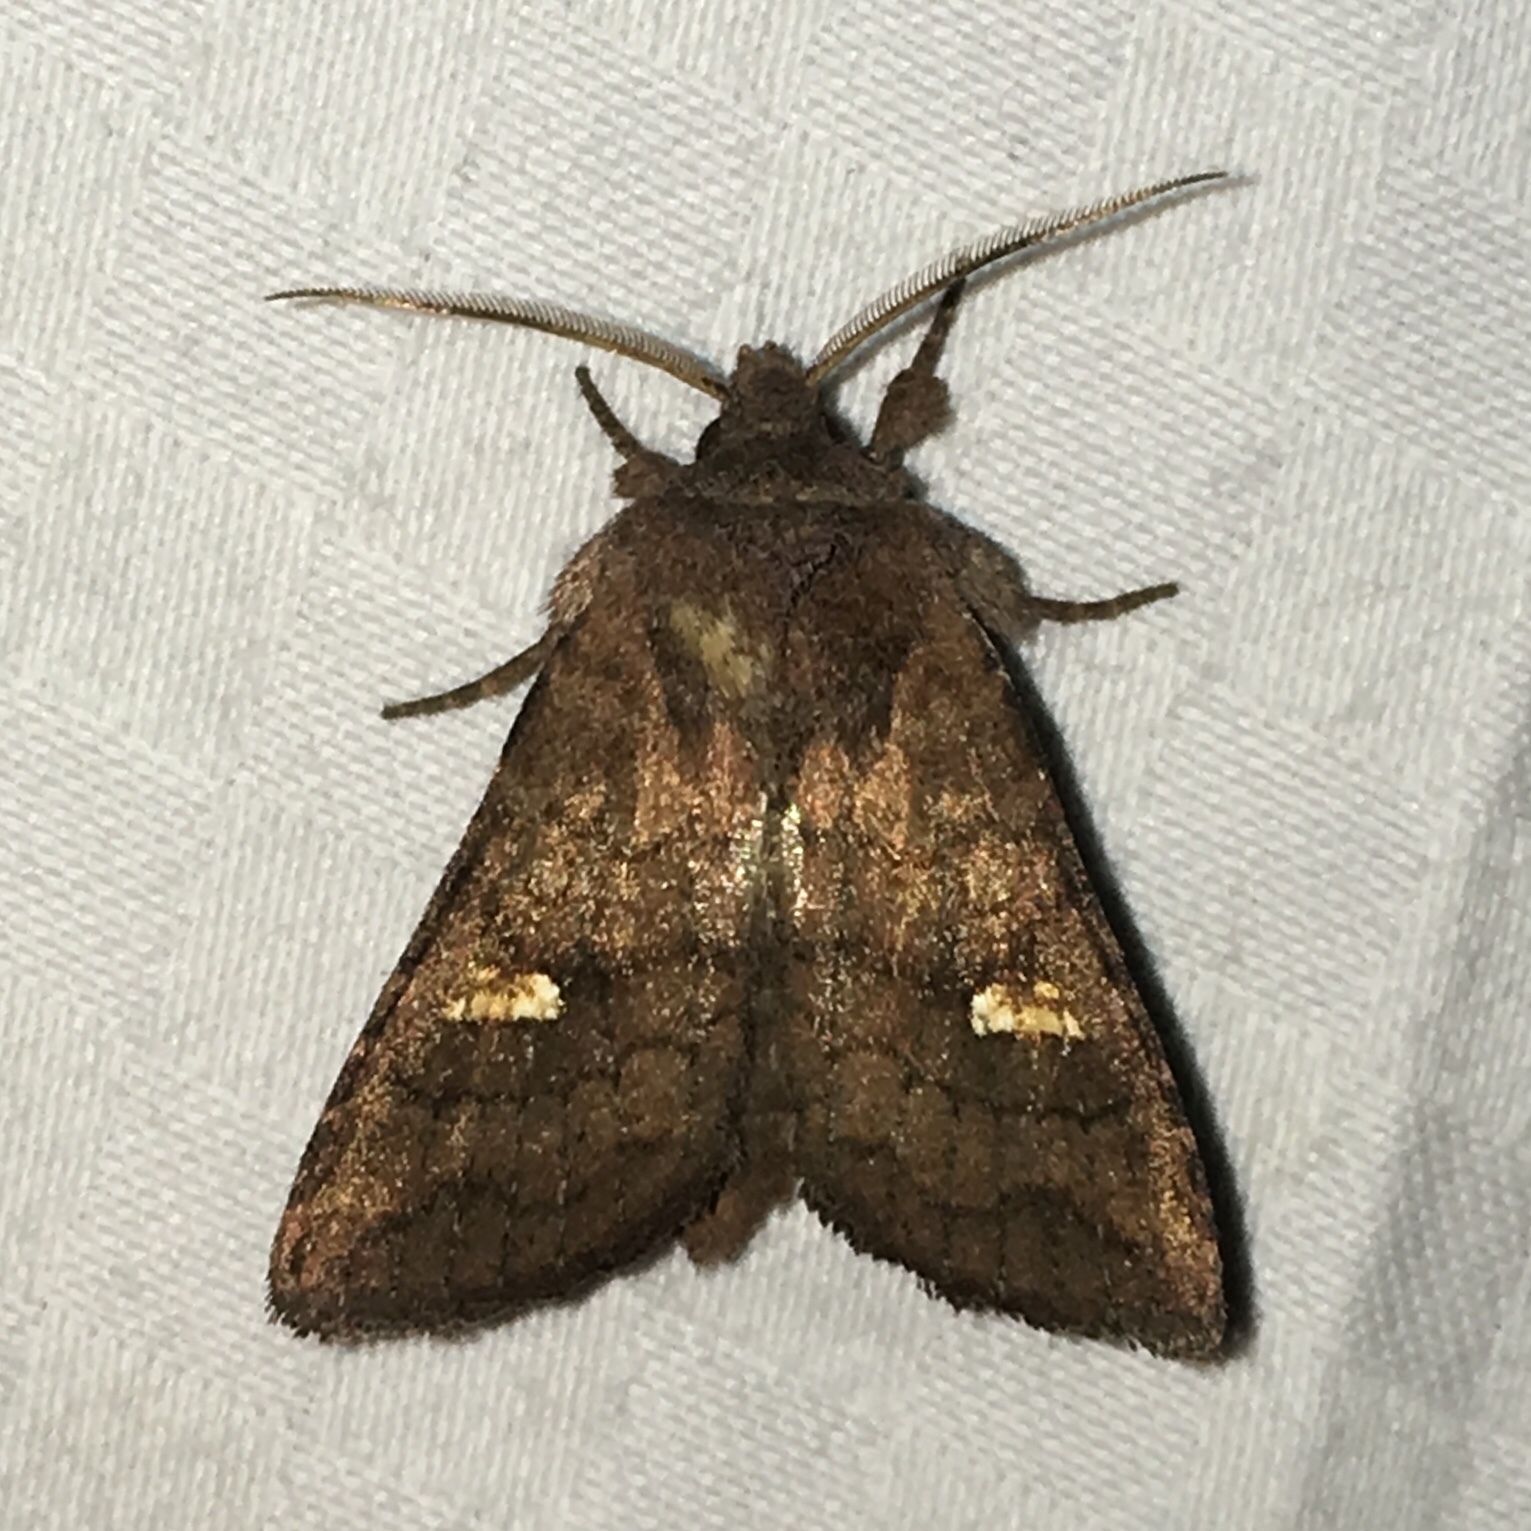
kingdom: Animalia
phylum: Arthropoda
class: Insecta
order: Lepidoptera
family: Noctuidae
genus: Tricholita
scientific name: Tricholita signata
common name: Signate quaker
